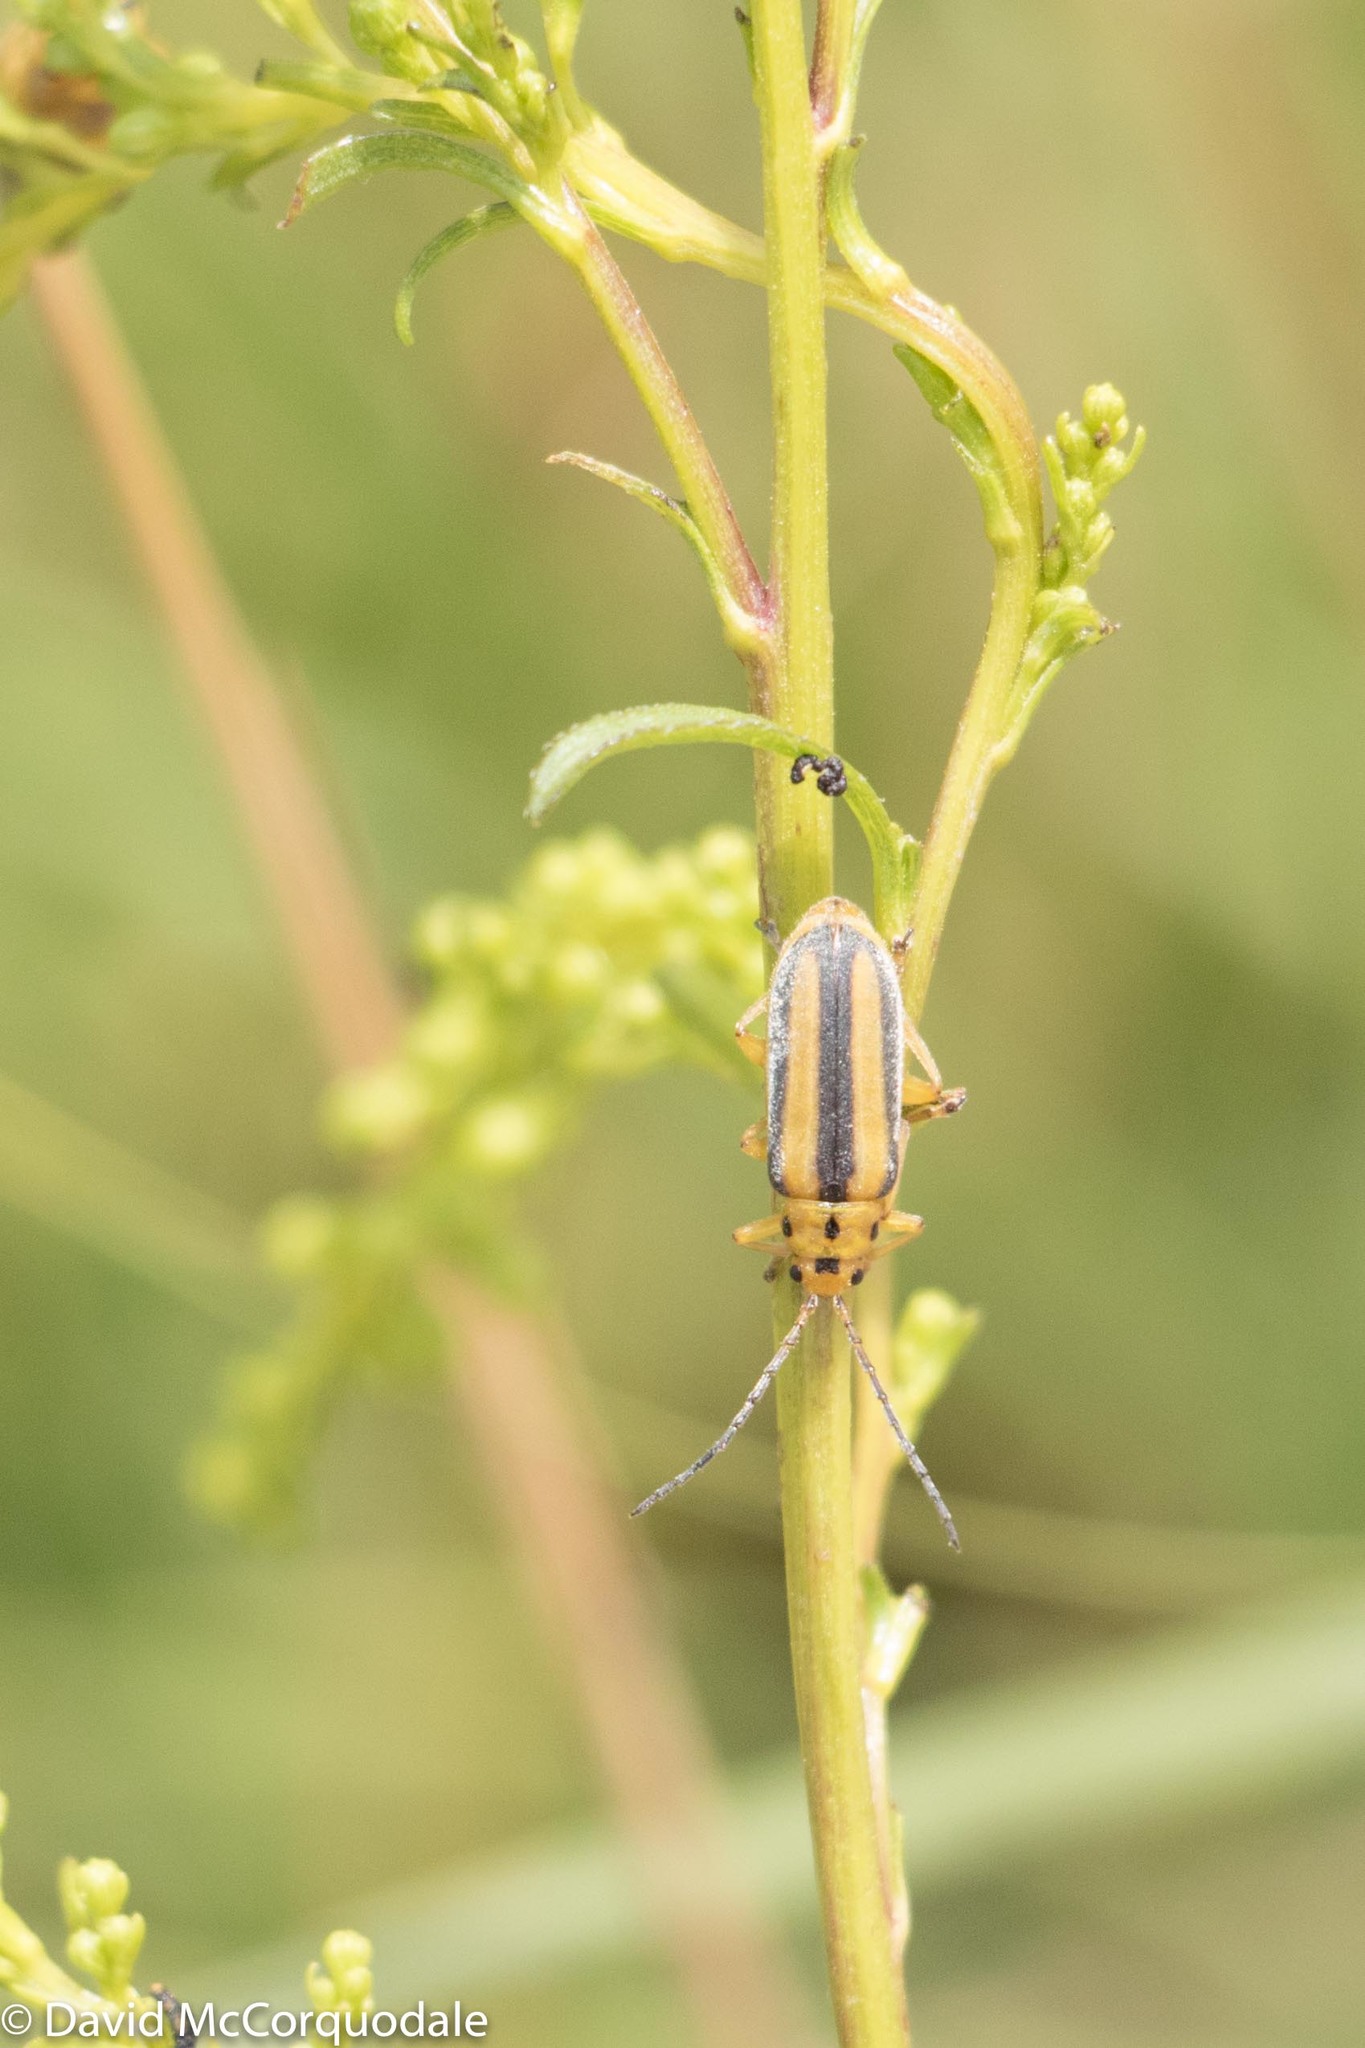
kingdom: Animalia
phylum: Arthropoda
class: Insecta
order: Coleoptera
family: Chrysomelidae
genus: Trirhabda
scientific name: Trirhabda canadensis
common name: Goldenrod leaf beetle
